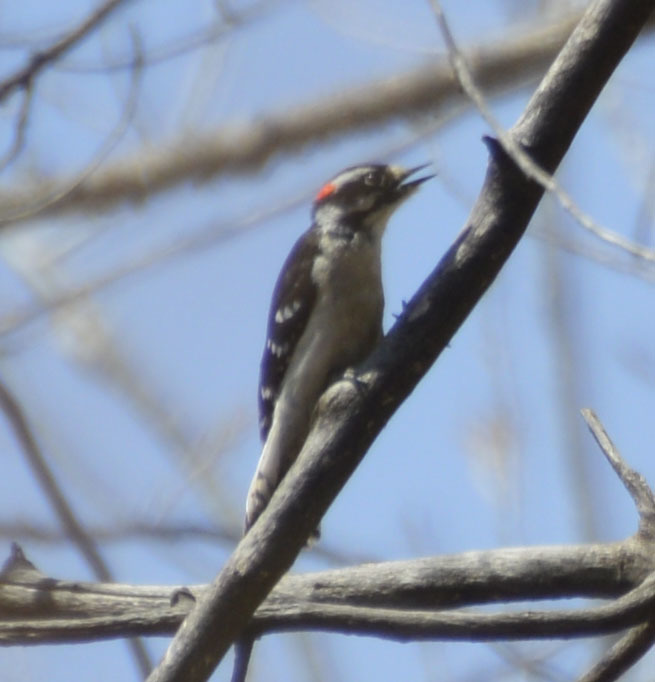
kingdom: Animalia
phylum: Chordata
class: Aves
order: Piciformes
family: Picidae
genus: Dryobates
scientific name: Dryobates pubescens
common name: Downy woodpecker
